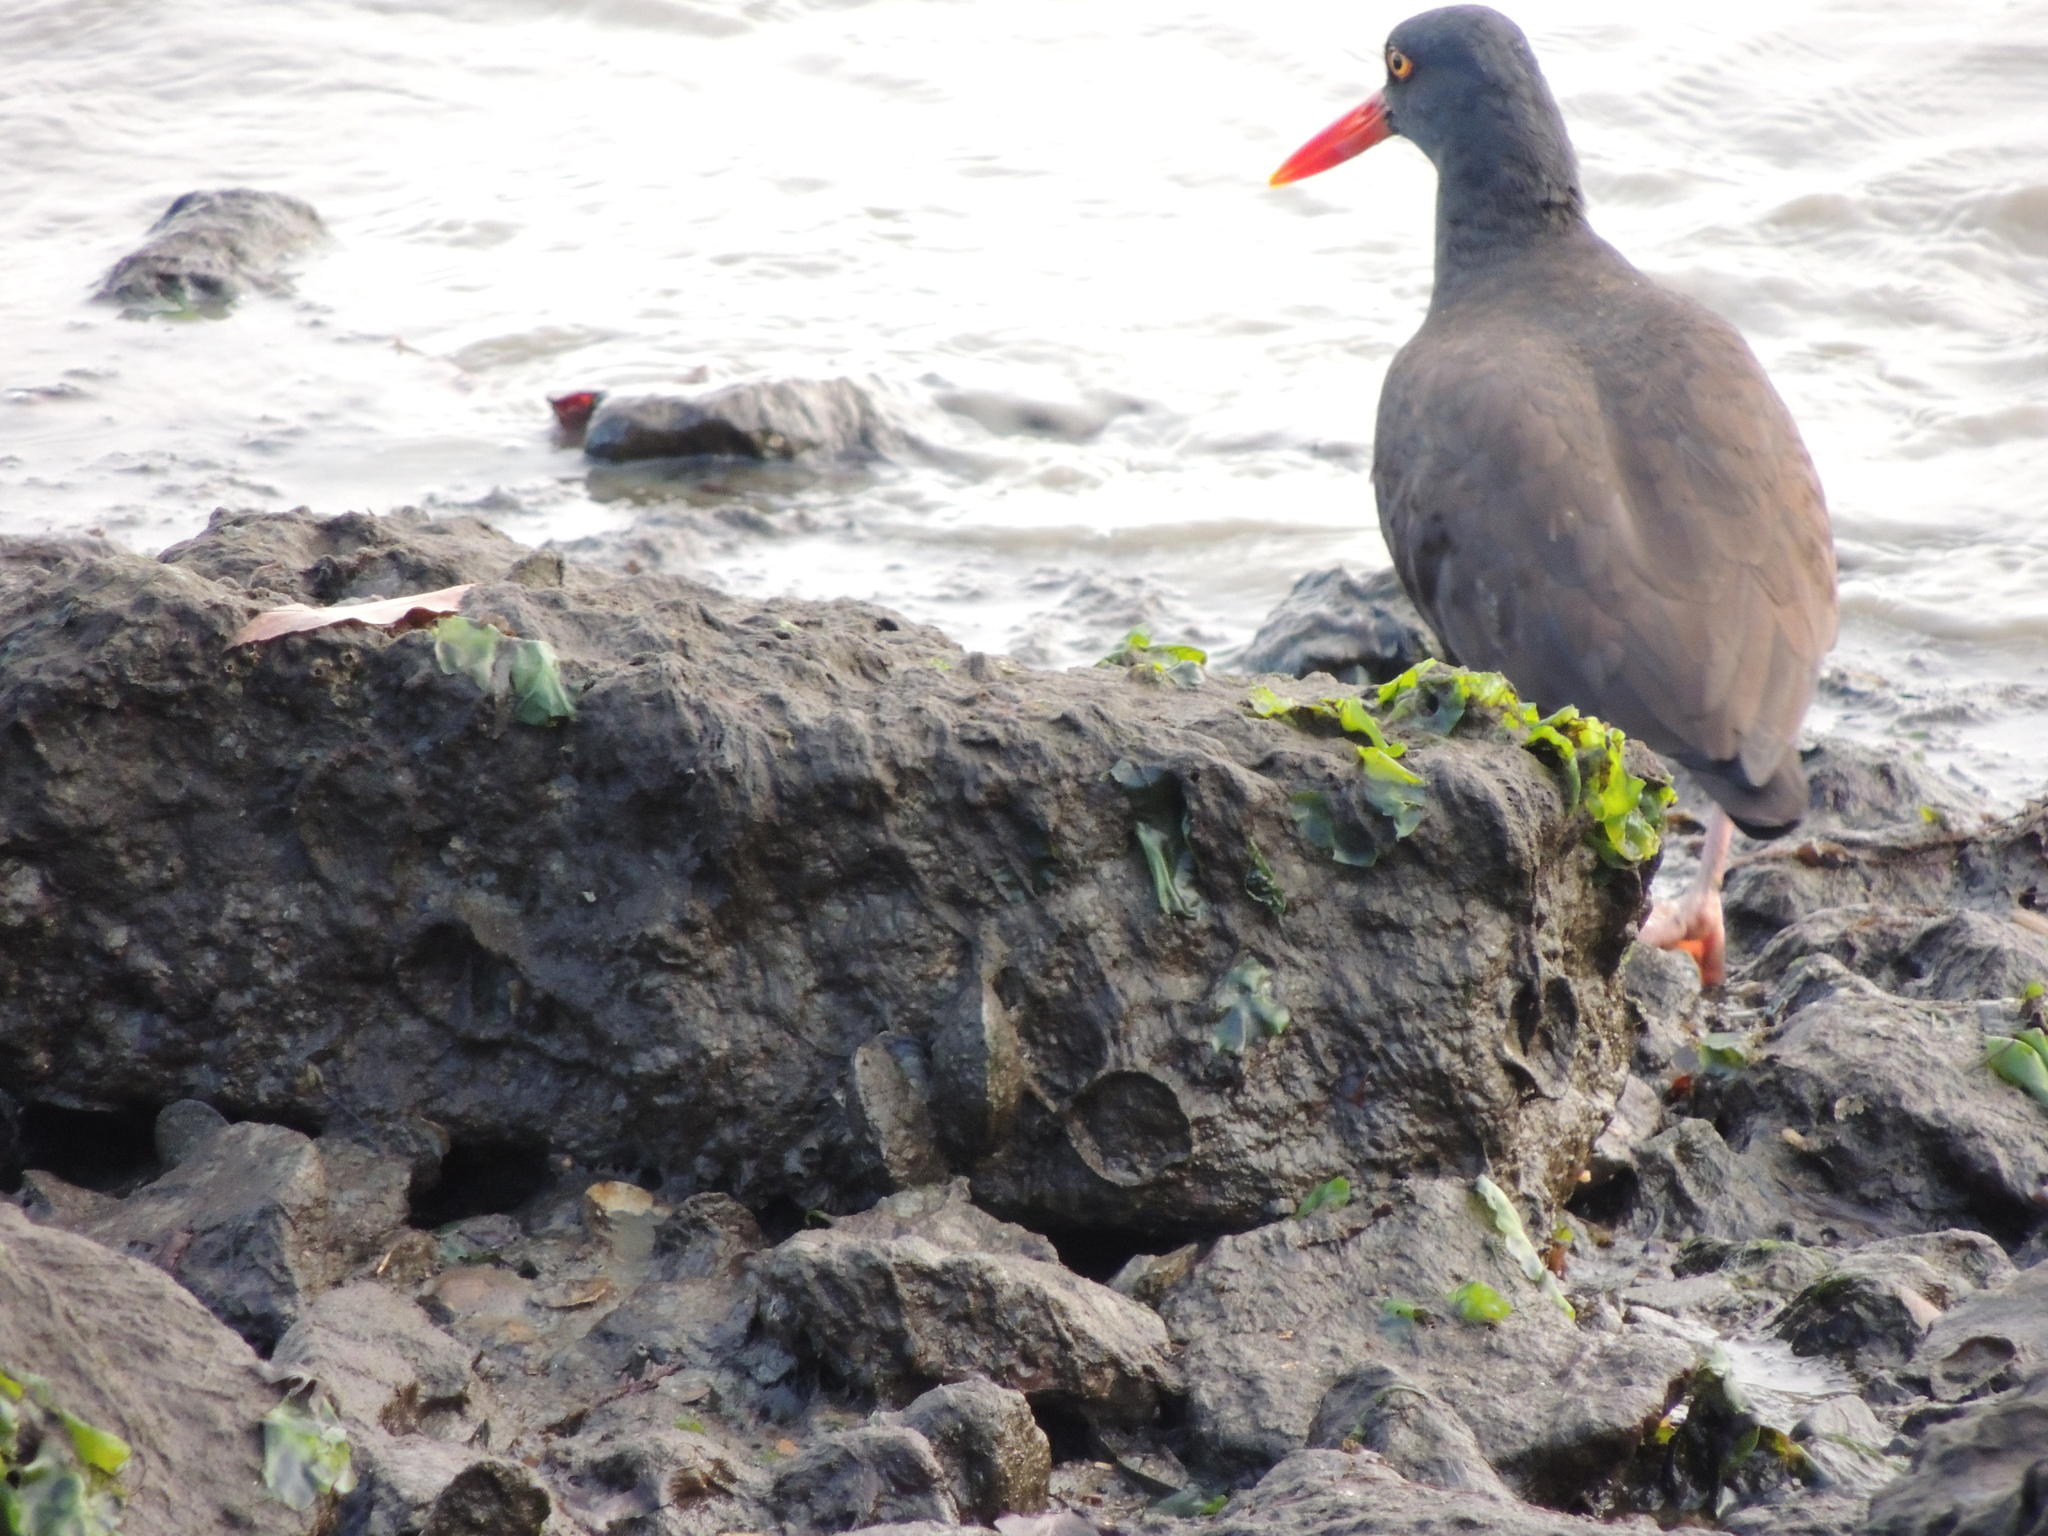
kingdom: Animalia
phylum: Chordata
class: Aves
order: Charadriiformes
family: Haematopodidae
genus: Haematopus
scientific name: Haematopus bachmani
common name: Black oystercatcher
